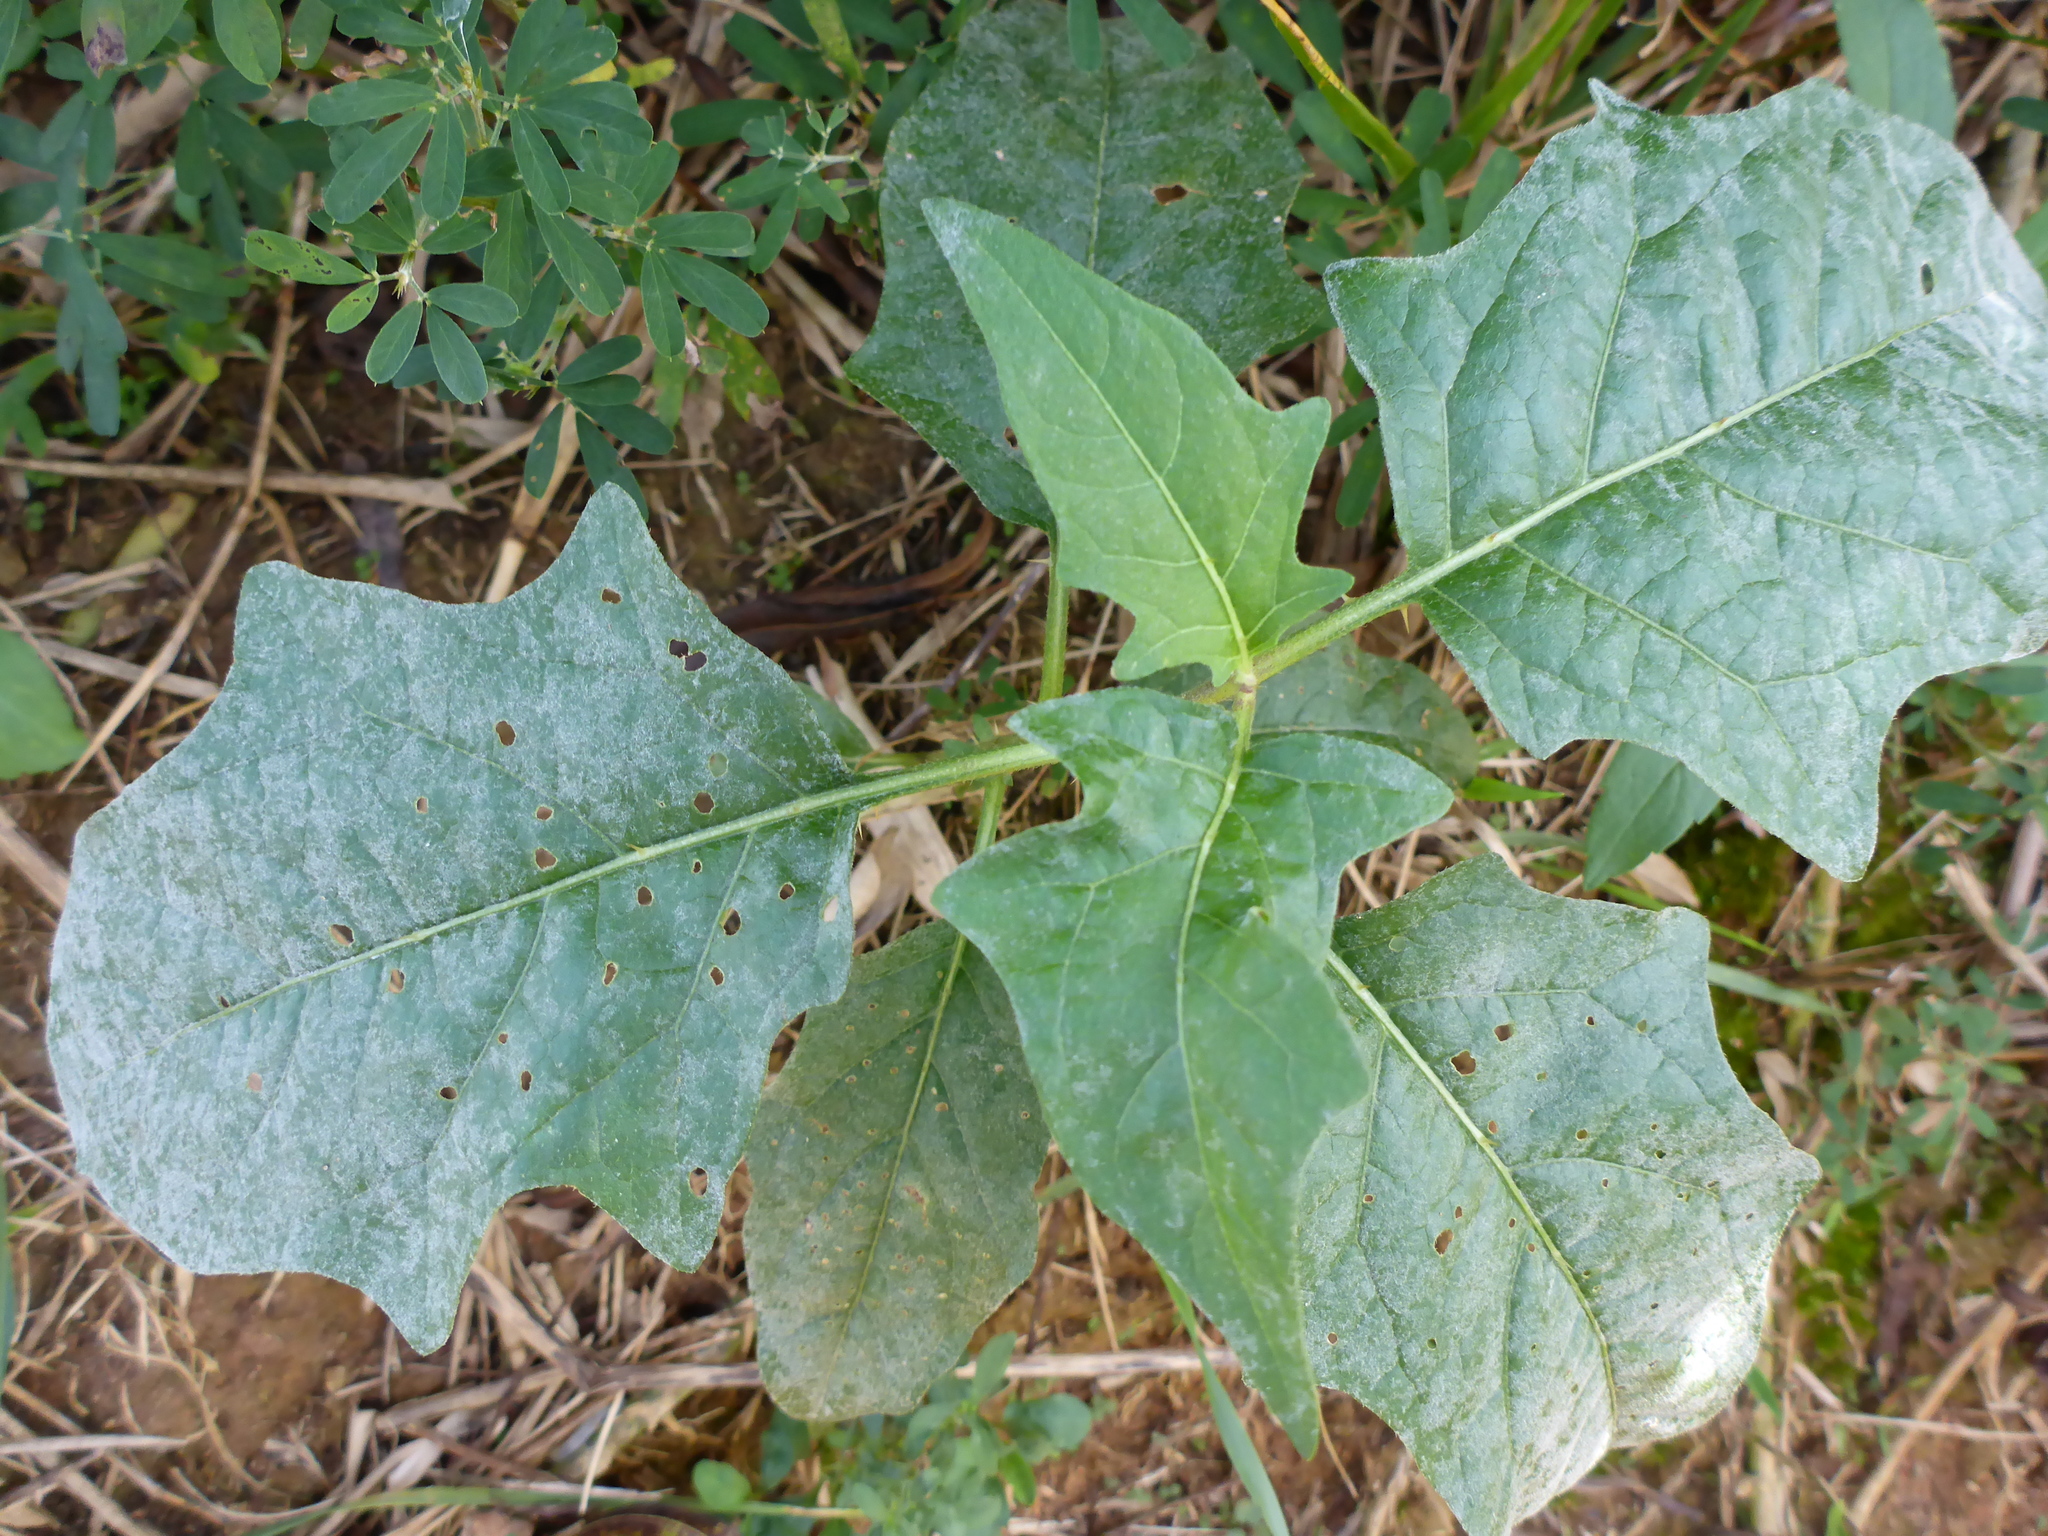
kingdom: Plantae
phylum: Tracheophyta
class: Magnoliopsida
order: Solanales
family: Solanaceae
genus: Solanum
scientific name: Solanum carolinense
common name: Horse-nettle
